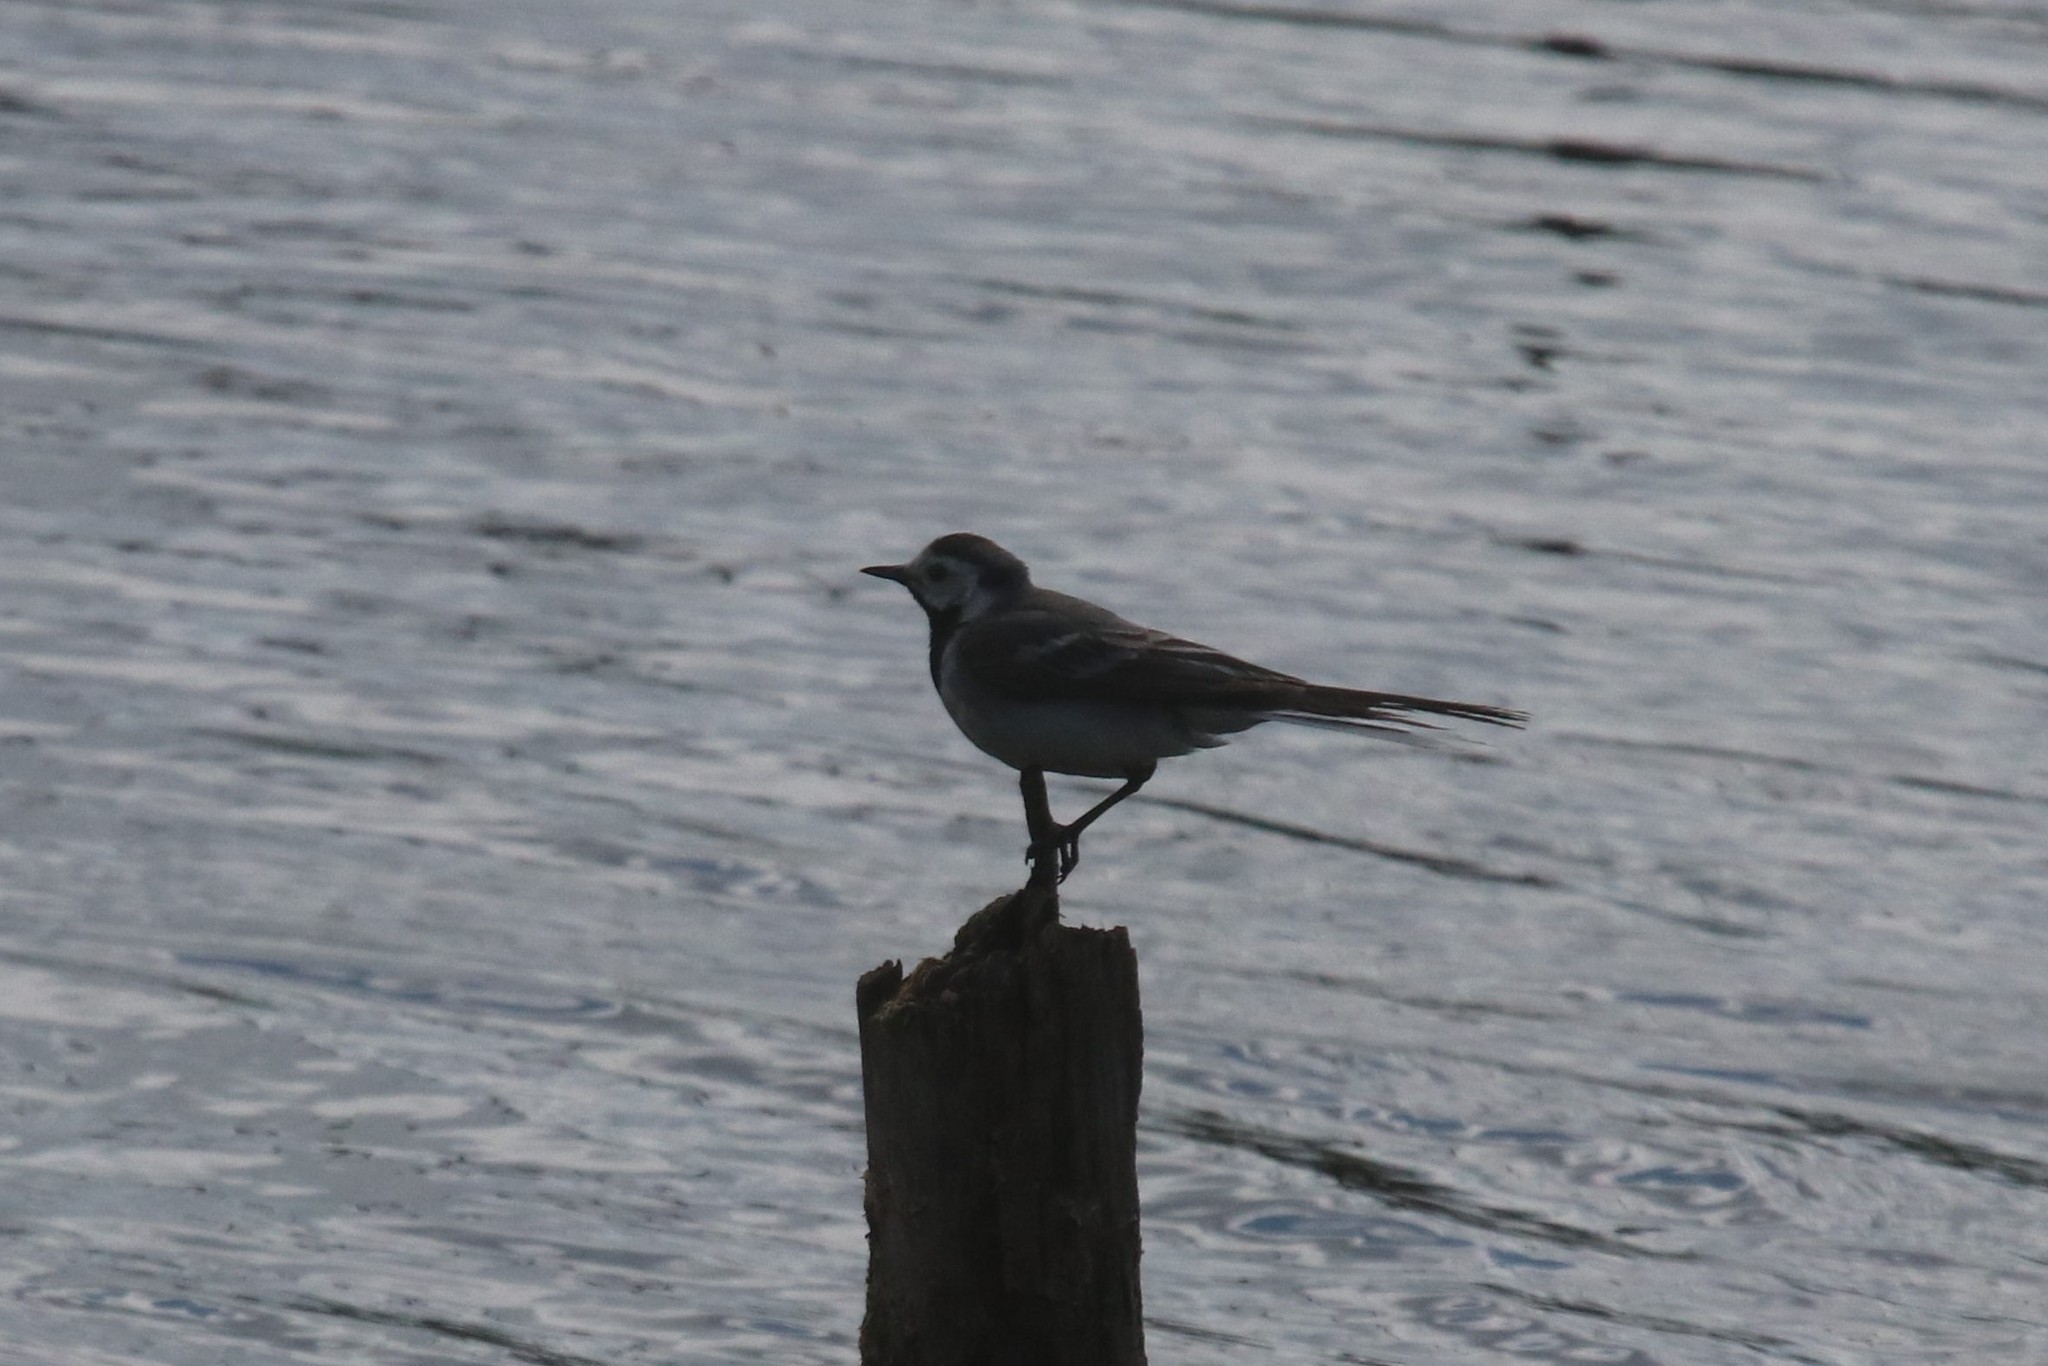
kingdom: Animalia
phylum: Chordata
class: Aves
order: Passeriformes
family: Motacillidae
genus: Motacilla
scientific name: Motacilla alba
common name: White wagtail
